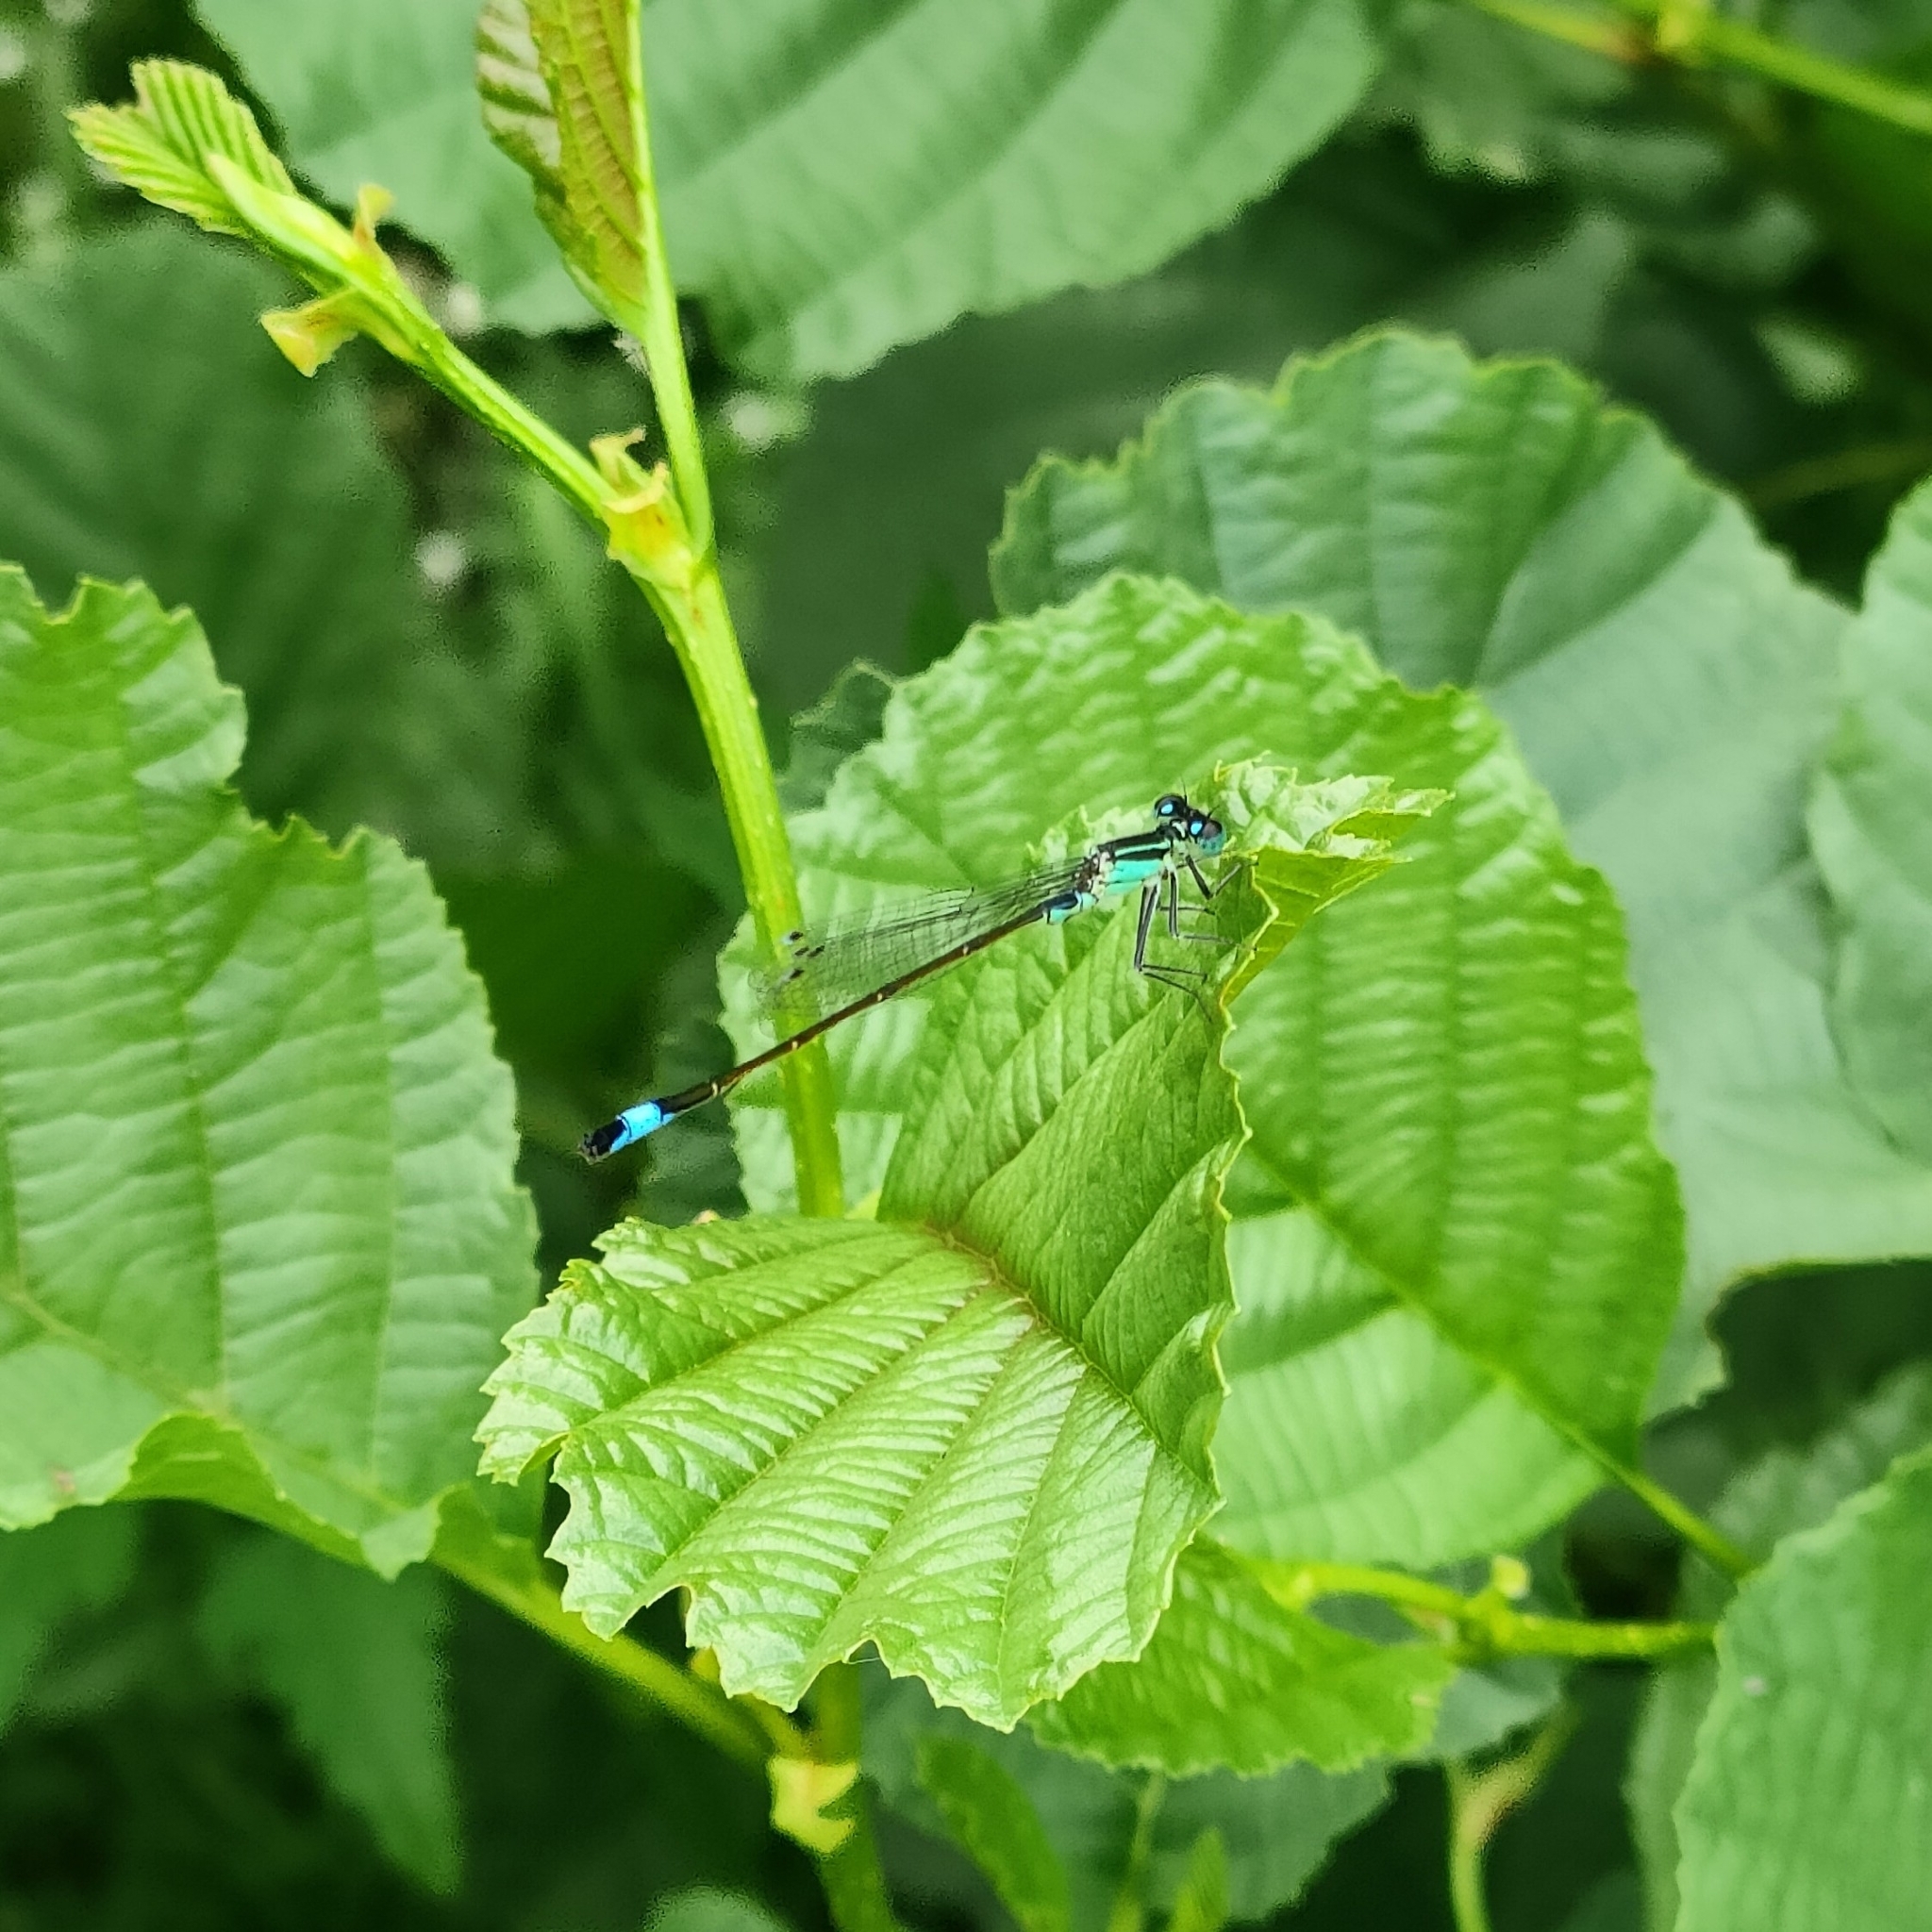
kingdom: Animalia
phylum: Arthropoda
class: Insecta
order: Odonata
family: Coenagrionidae
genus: Ischnura
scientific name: Ischnura elegans
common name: Blue-tailed damselfly
